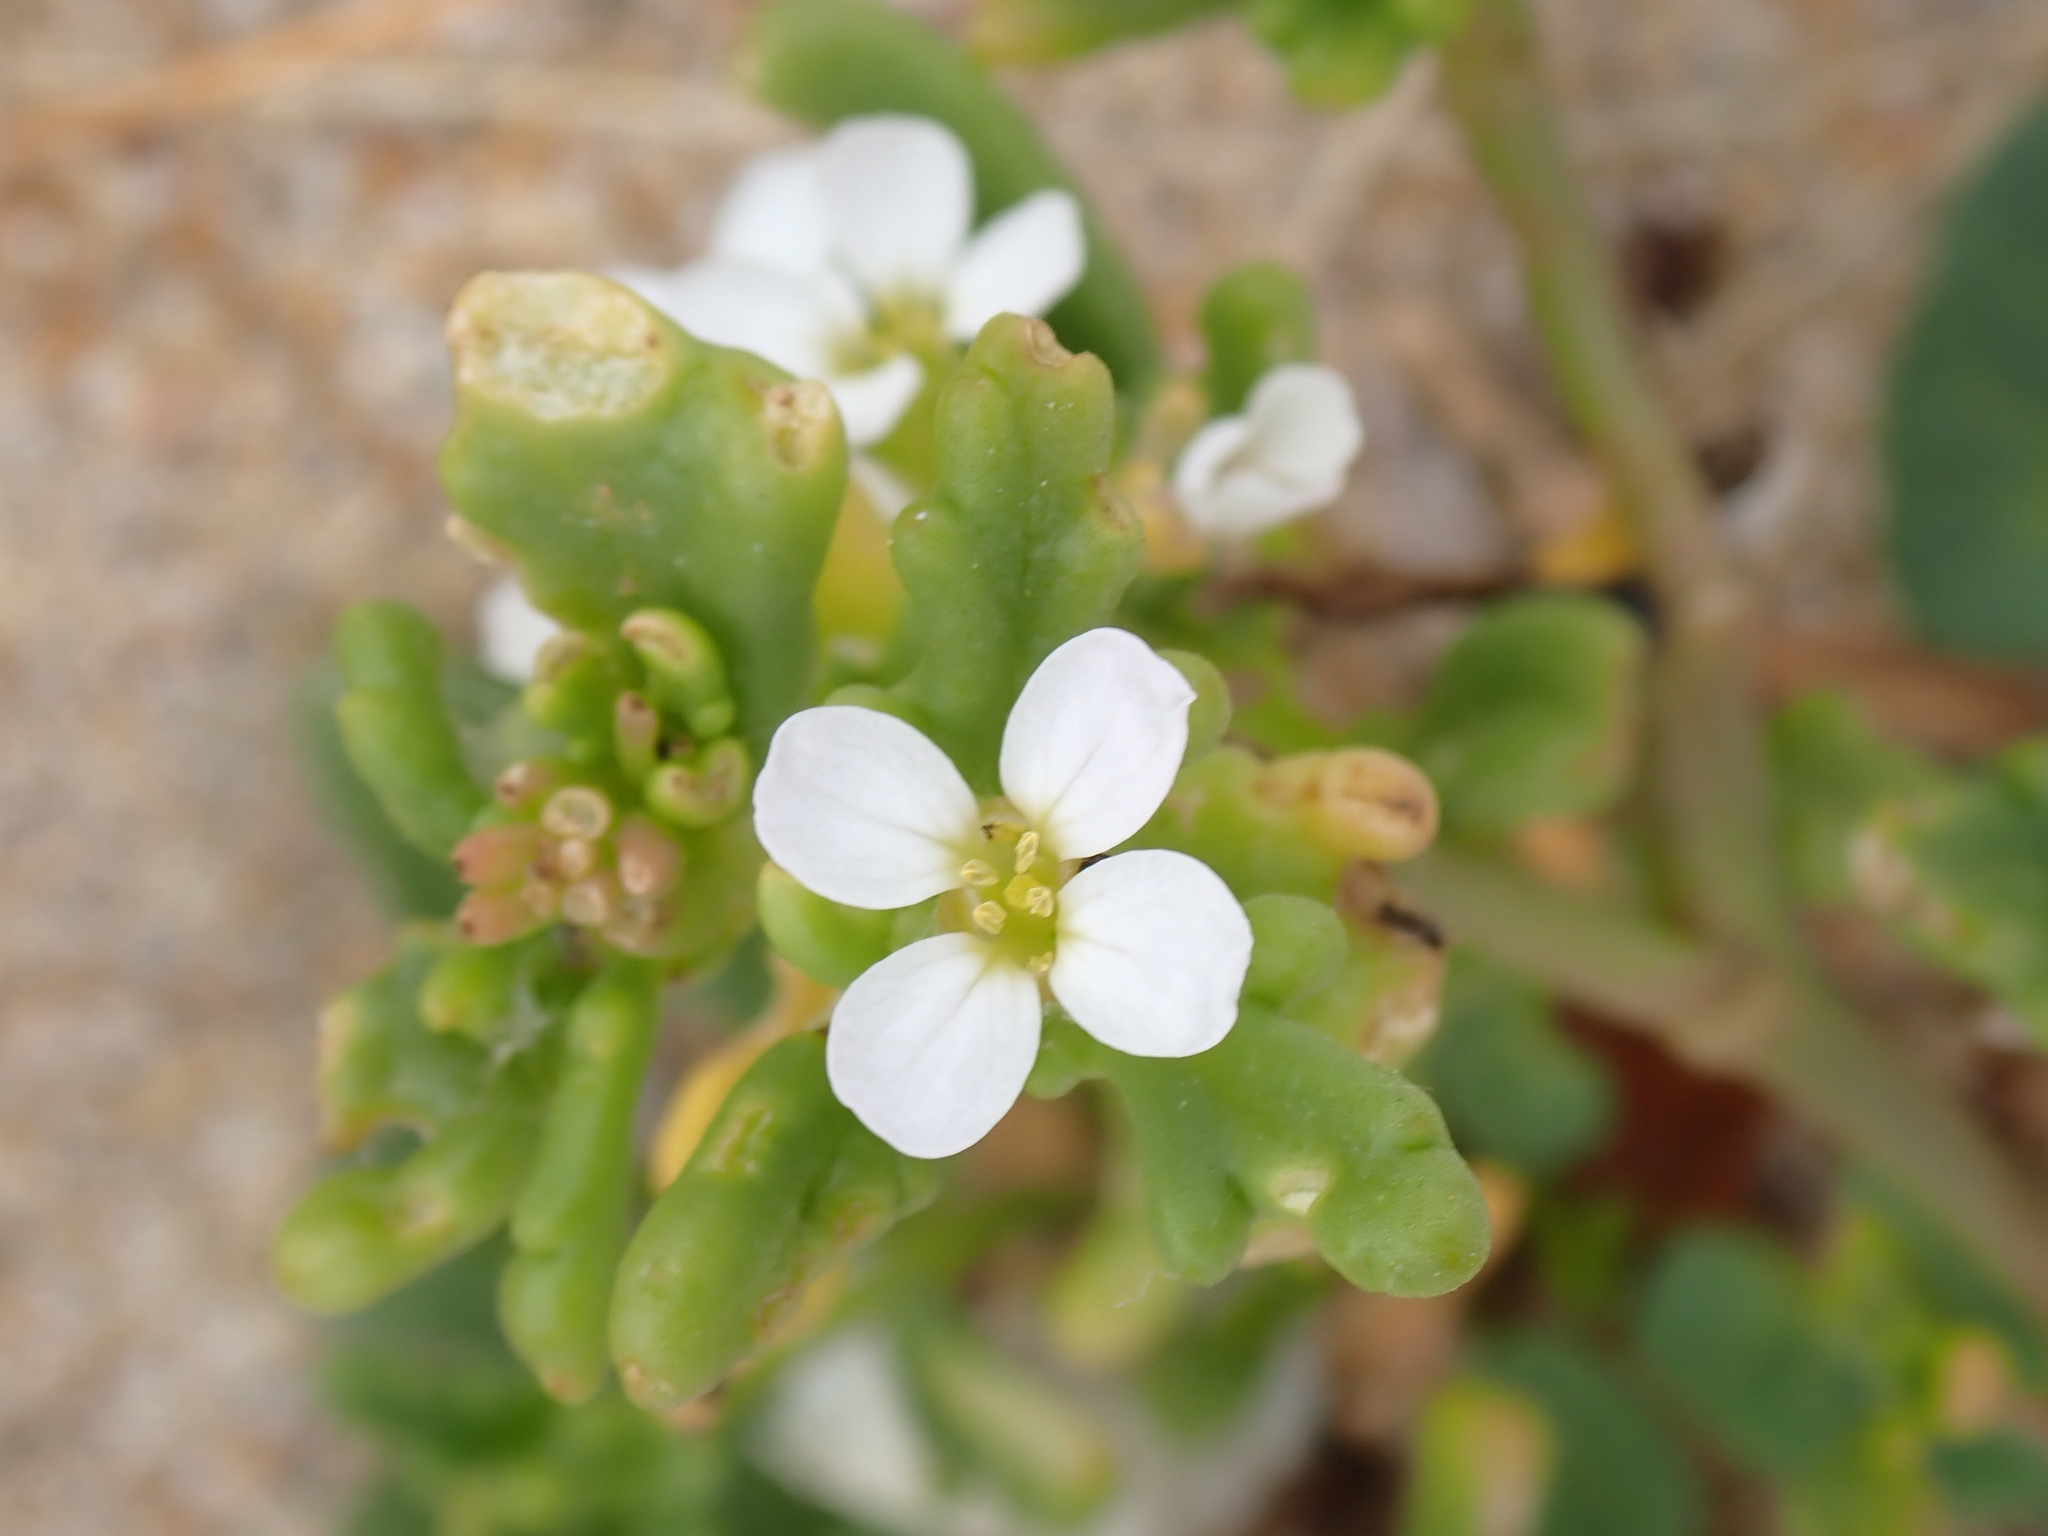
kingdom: Plantae
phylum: Tracheophyta
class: Magnoliopsida
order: Brassicales
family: Brassicaceae
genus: Cakile
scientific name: Cakile maritima
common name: Sea rocket
